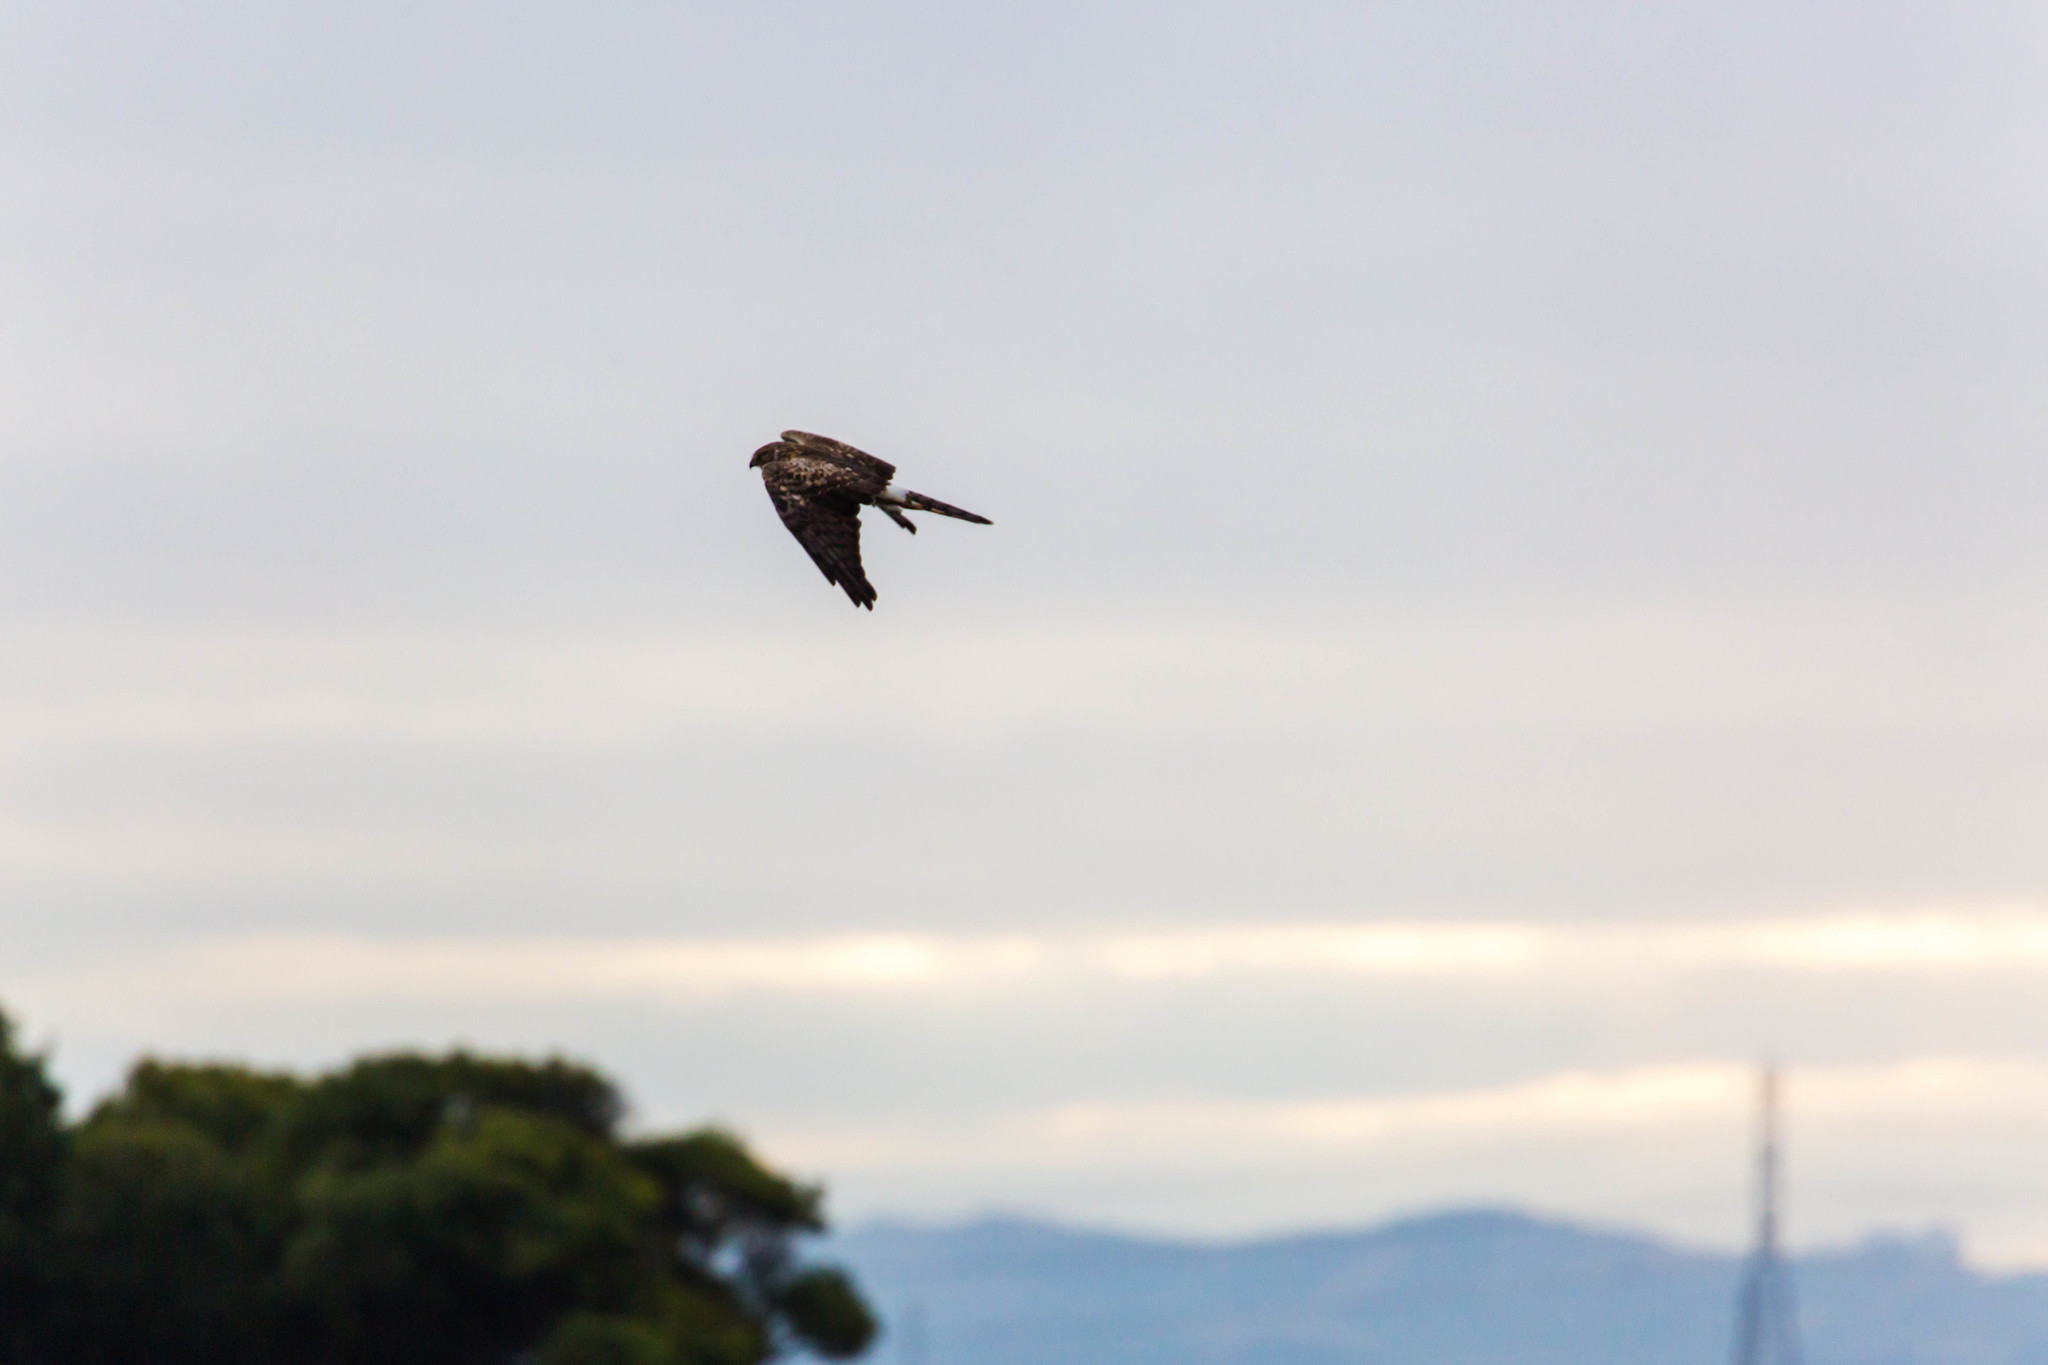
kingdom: Animalia
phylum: Chordata
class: Aves
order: Accipitriformes
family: Accipitridae
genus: Circus
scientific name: Circus cyaneus
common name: Hen harrier
